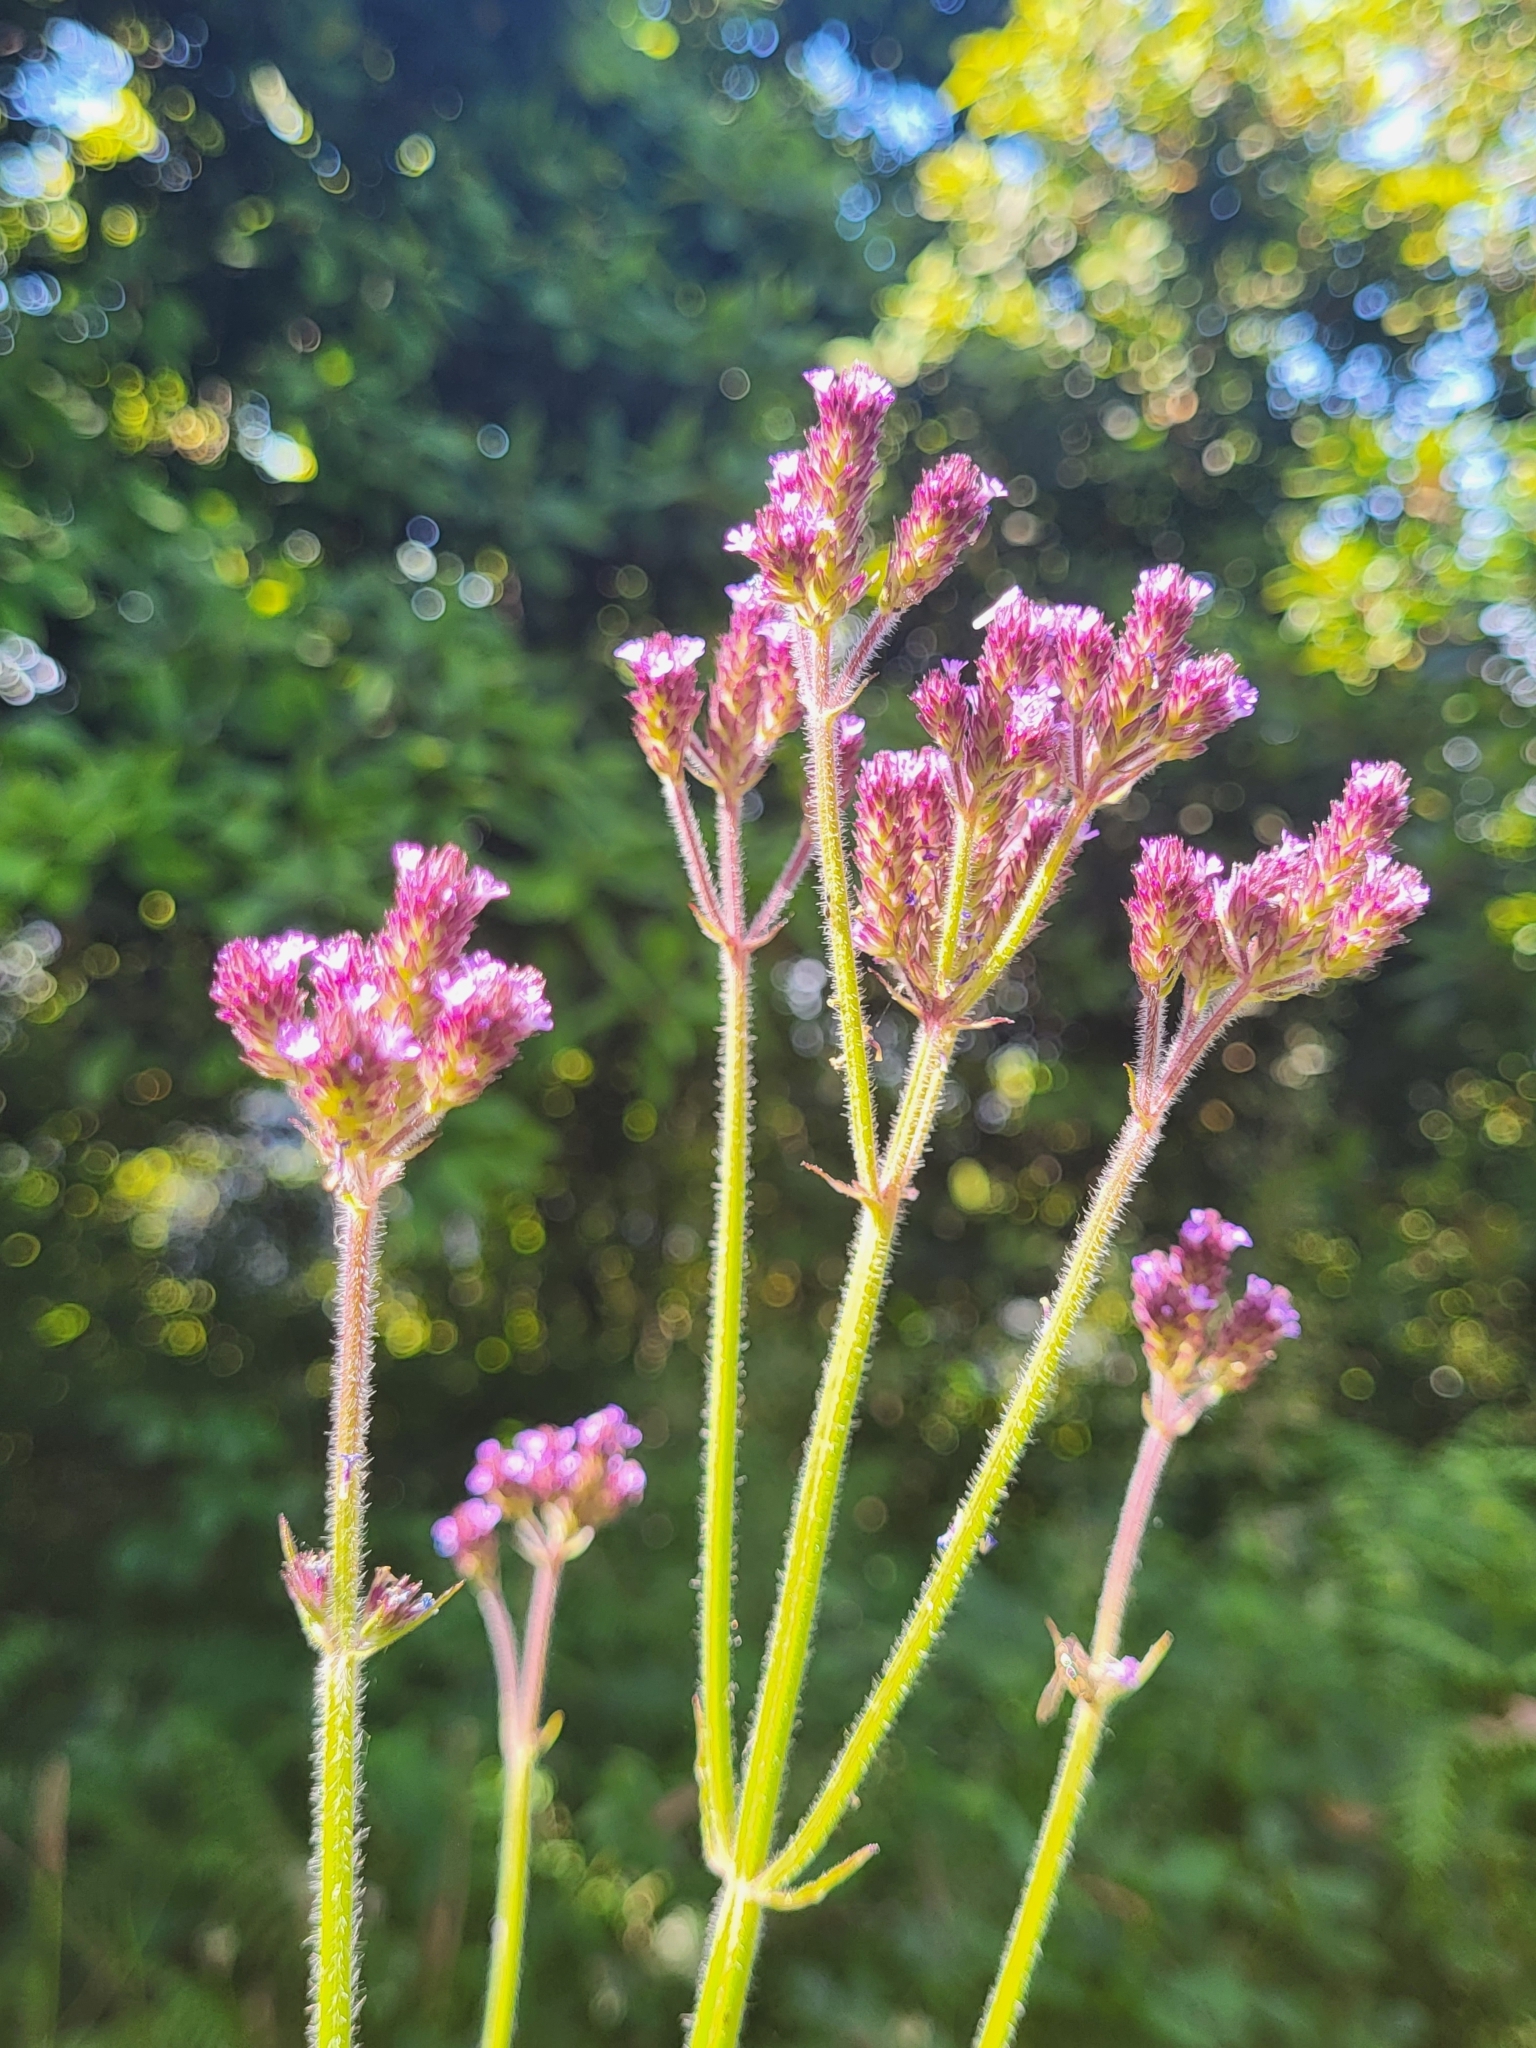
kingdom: Plantae
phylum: Tracheophyta
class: Magnoliopsida
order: Lamiales
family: Verbenaceae
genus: Verbena
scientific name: Verbena bonariensis
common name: Purpletop vervain
